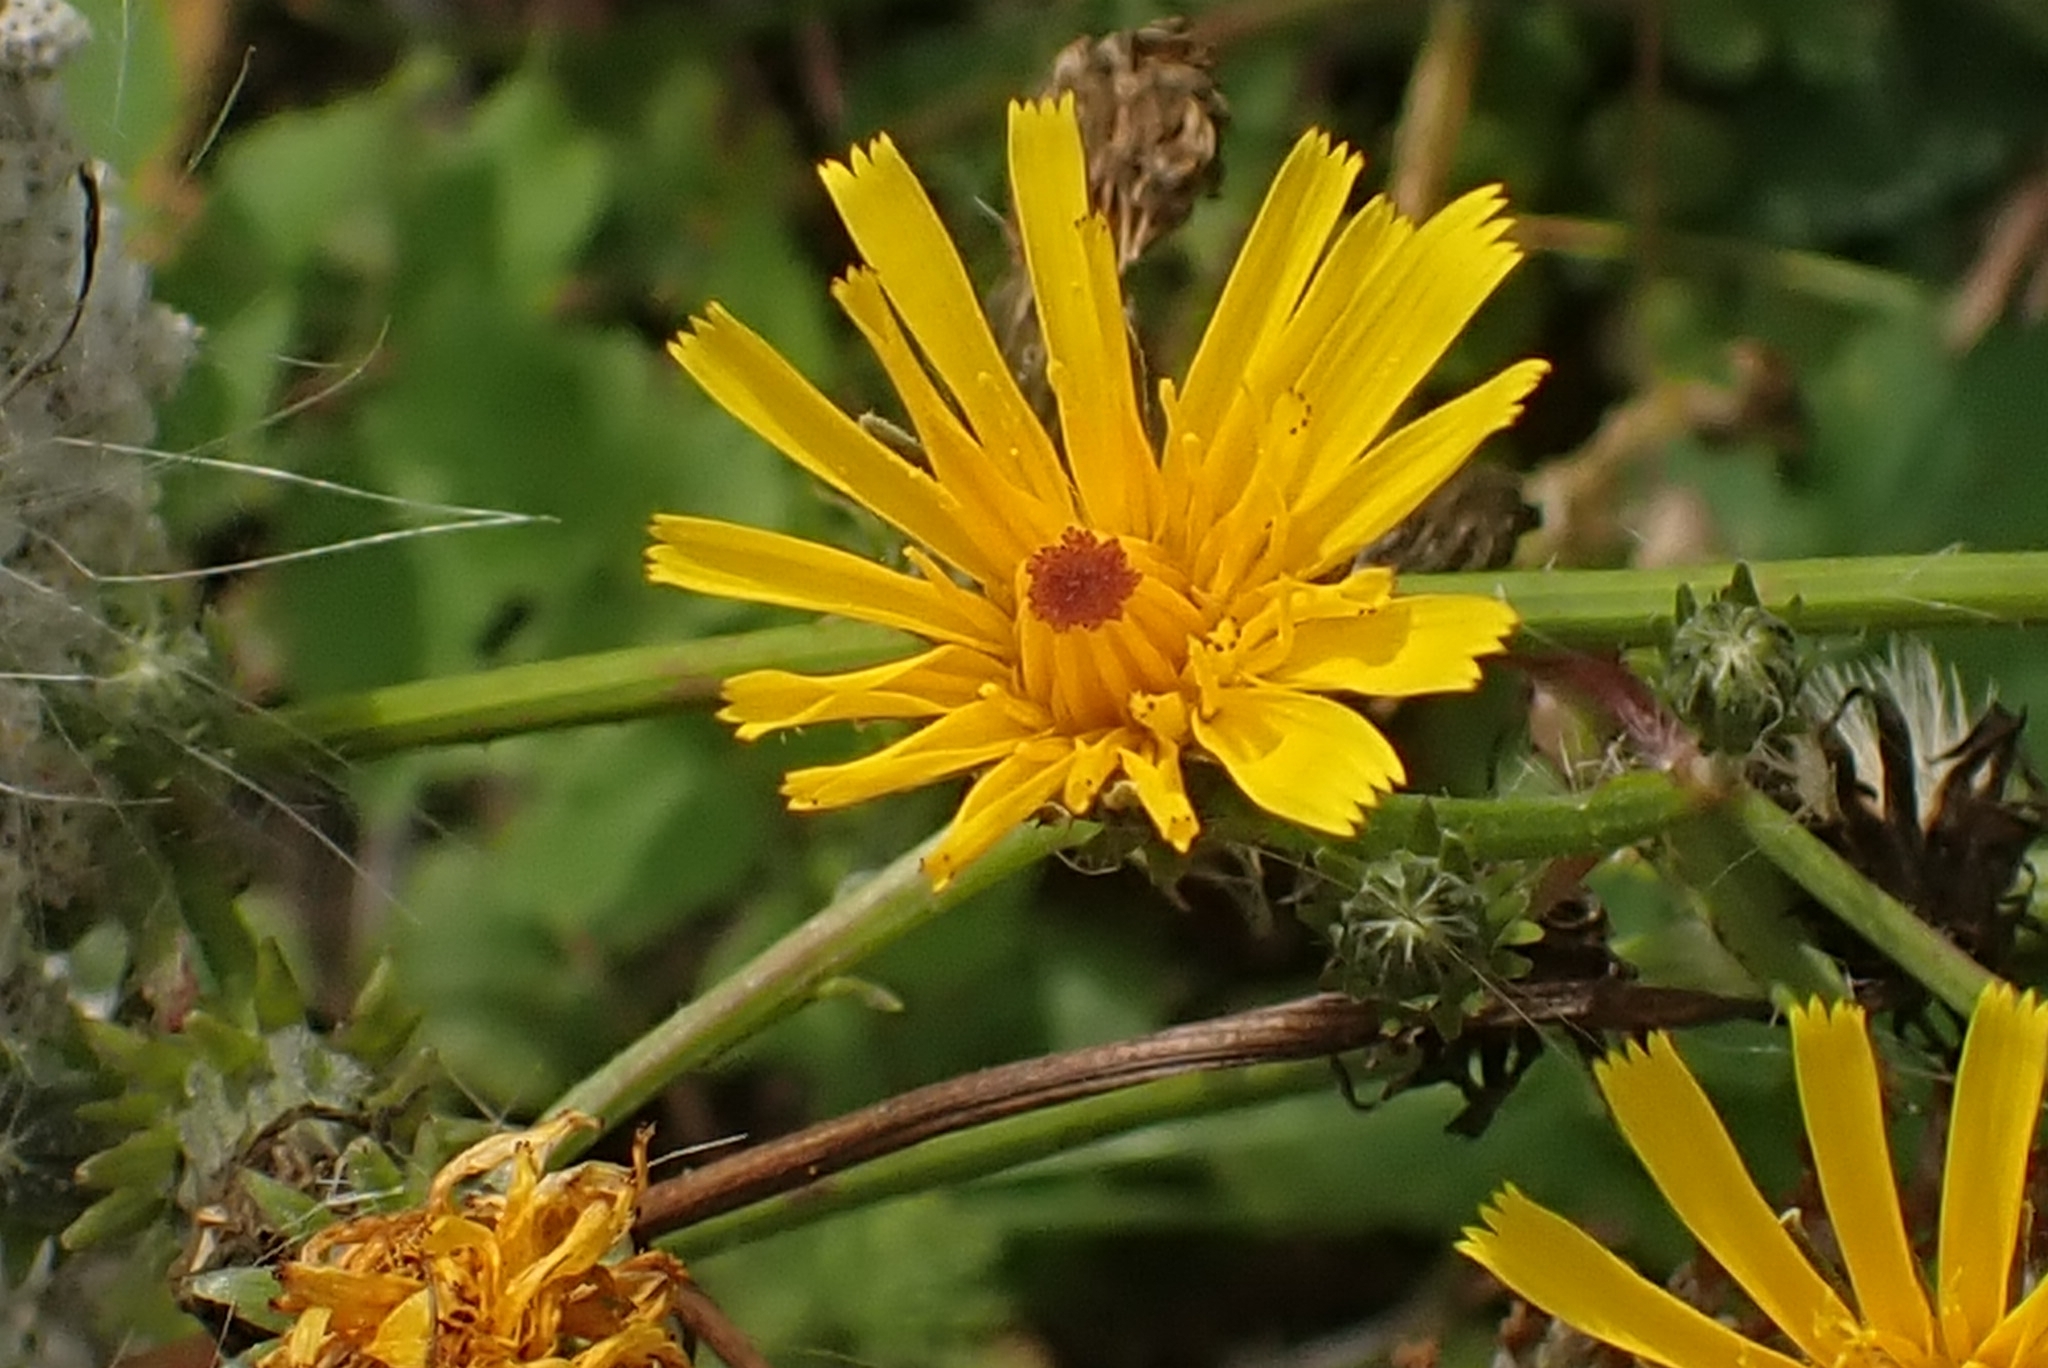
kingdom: Plantae
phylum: Tracheophyta
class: Magnoliopsida
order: Asterales
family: Asteraceae
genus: Picris
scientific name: Picris hieracioides
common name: Hawkweed oxtongue
